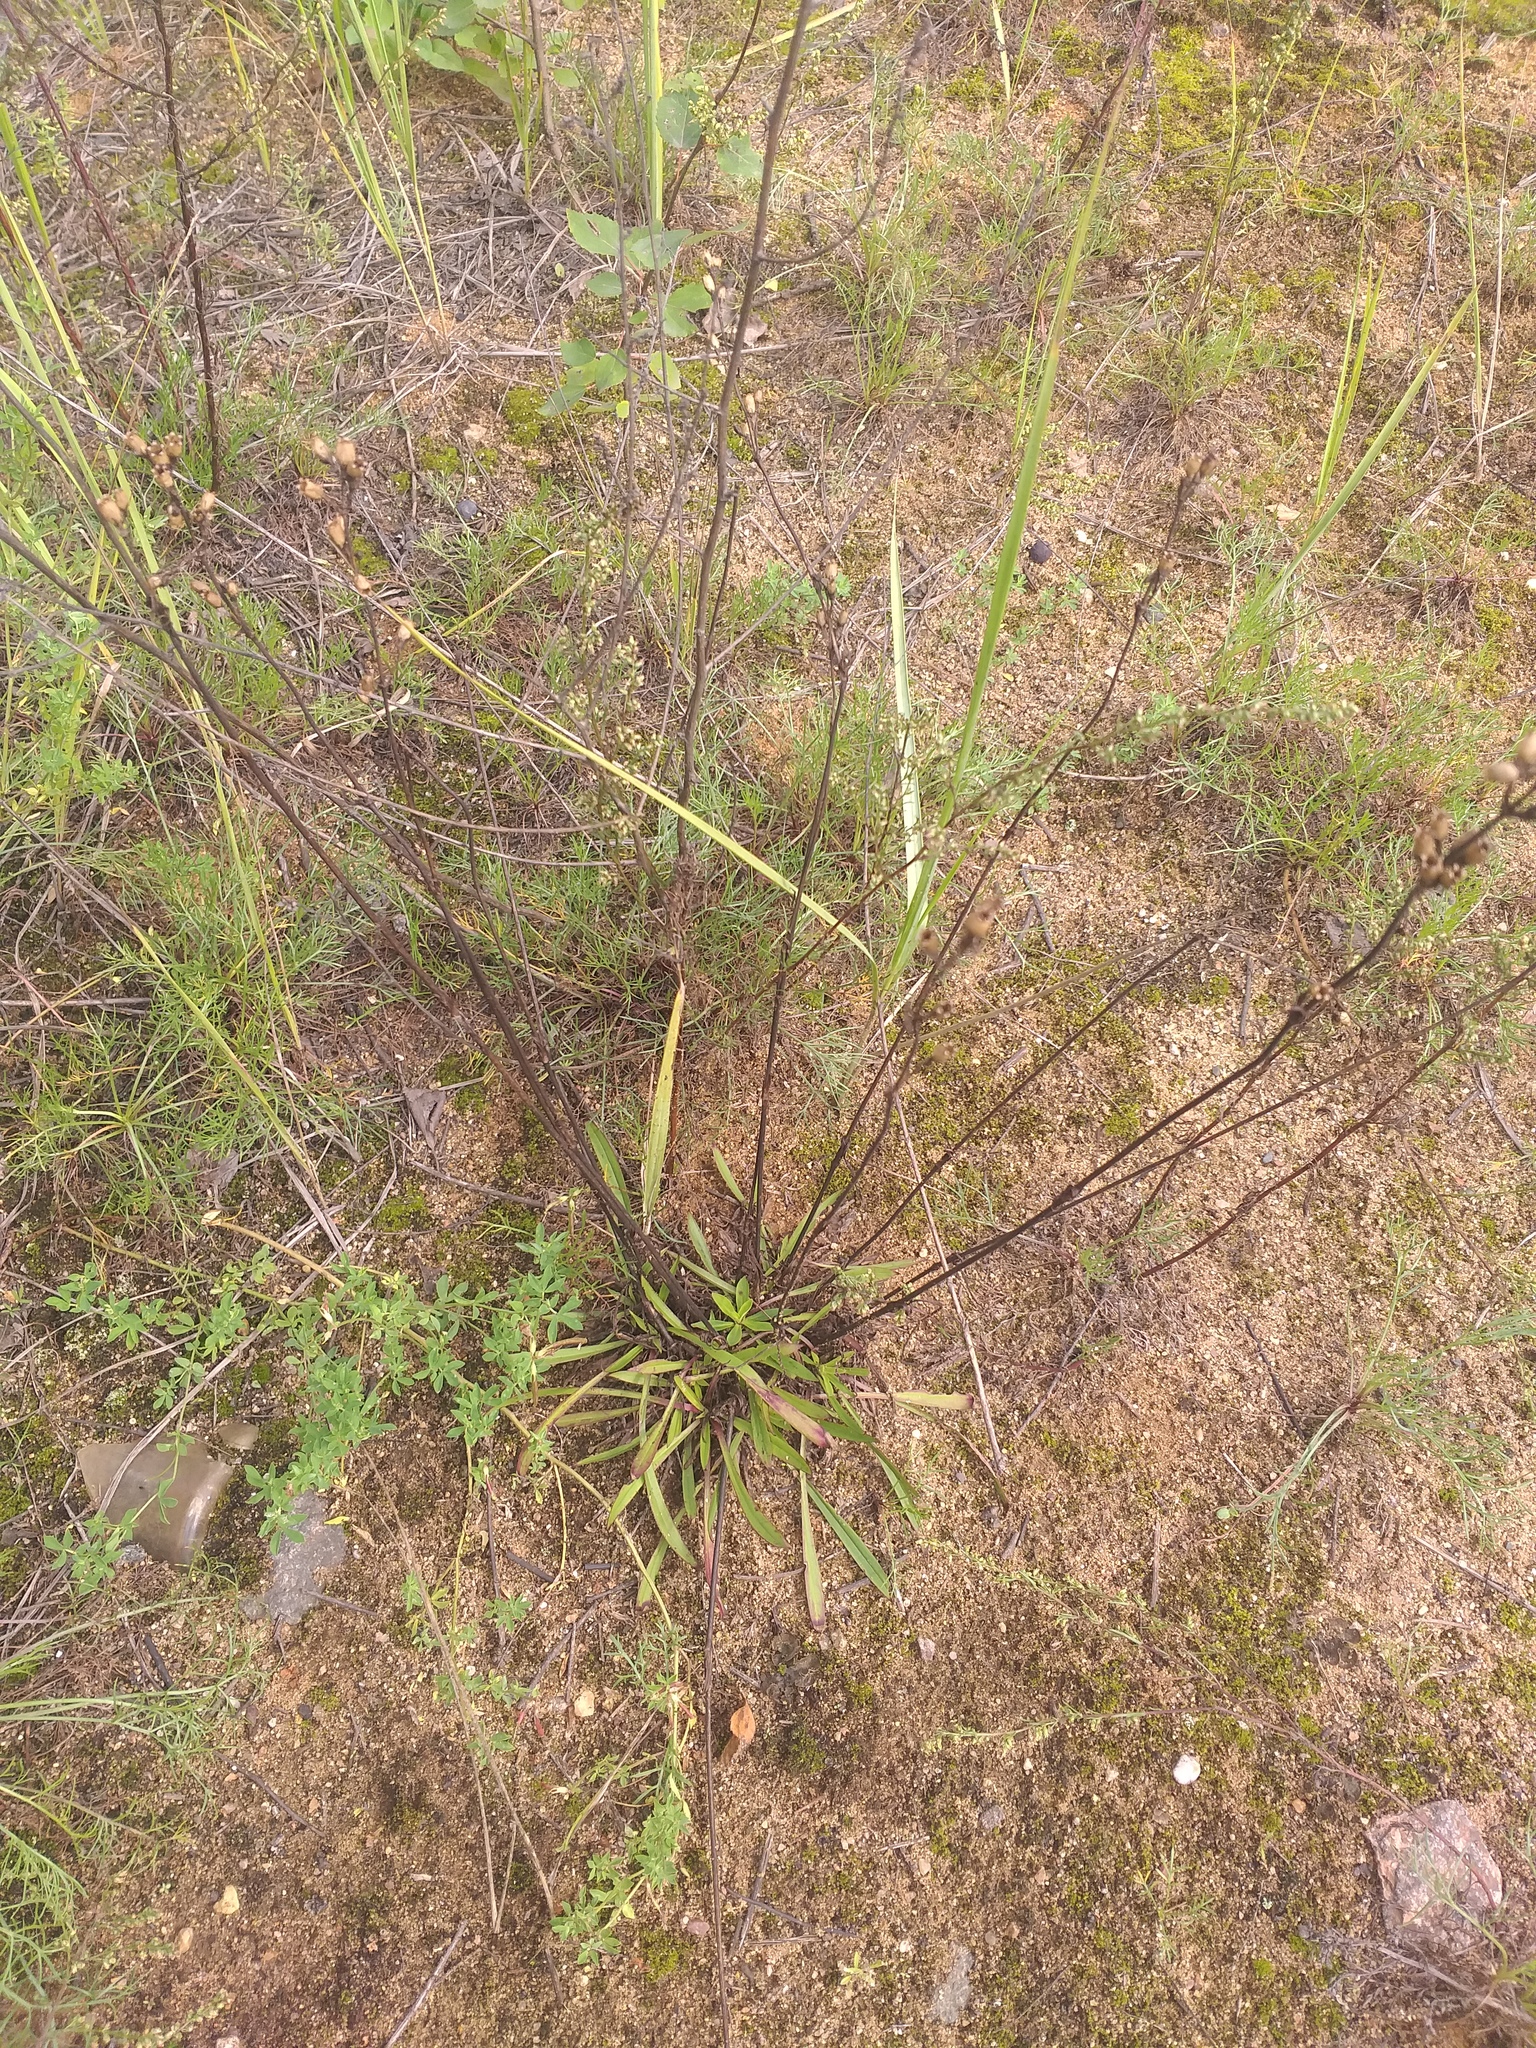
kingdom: Plantae
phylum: Tracheophyta
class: Magnoliopsida
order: Caryophyllales
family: Caryophyllaceae
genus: Viscaria
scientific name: Viscaria vulgaris
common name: Clammy campion
